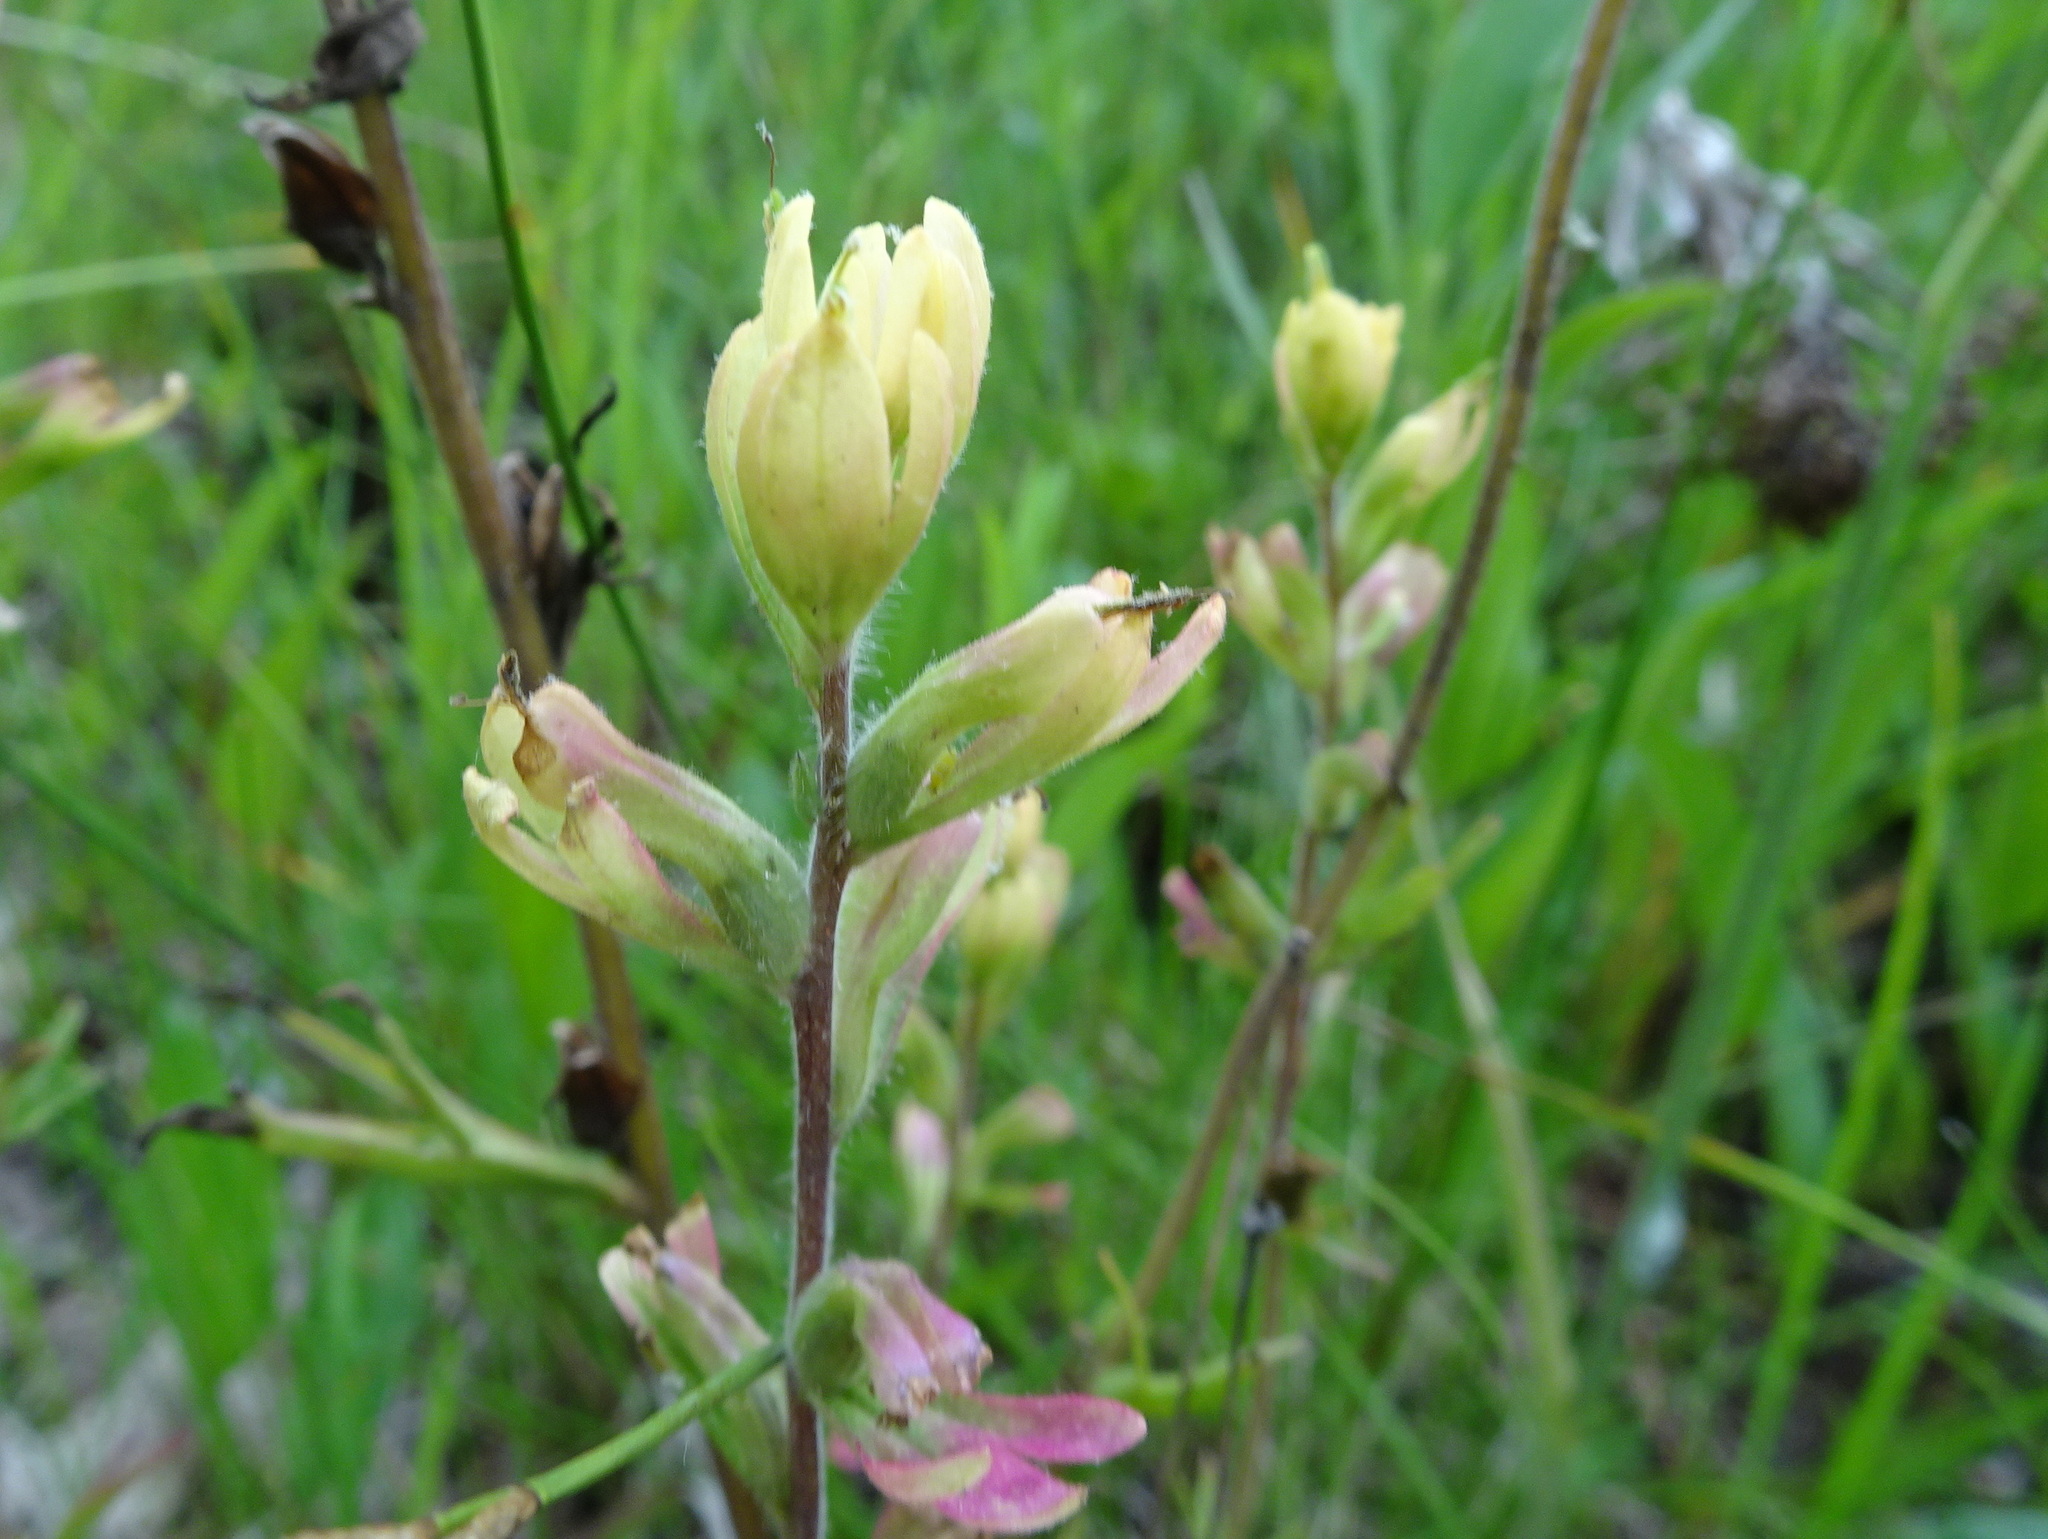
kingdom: Plantae
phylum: Tracheophyta
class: Magnoliopsida
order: Lamiales
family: Orobanchaceae
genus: Castilleja
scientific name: Castilleja coccinea
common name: Scarlet paintbrush
